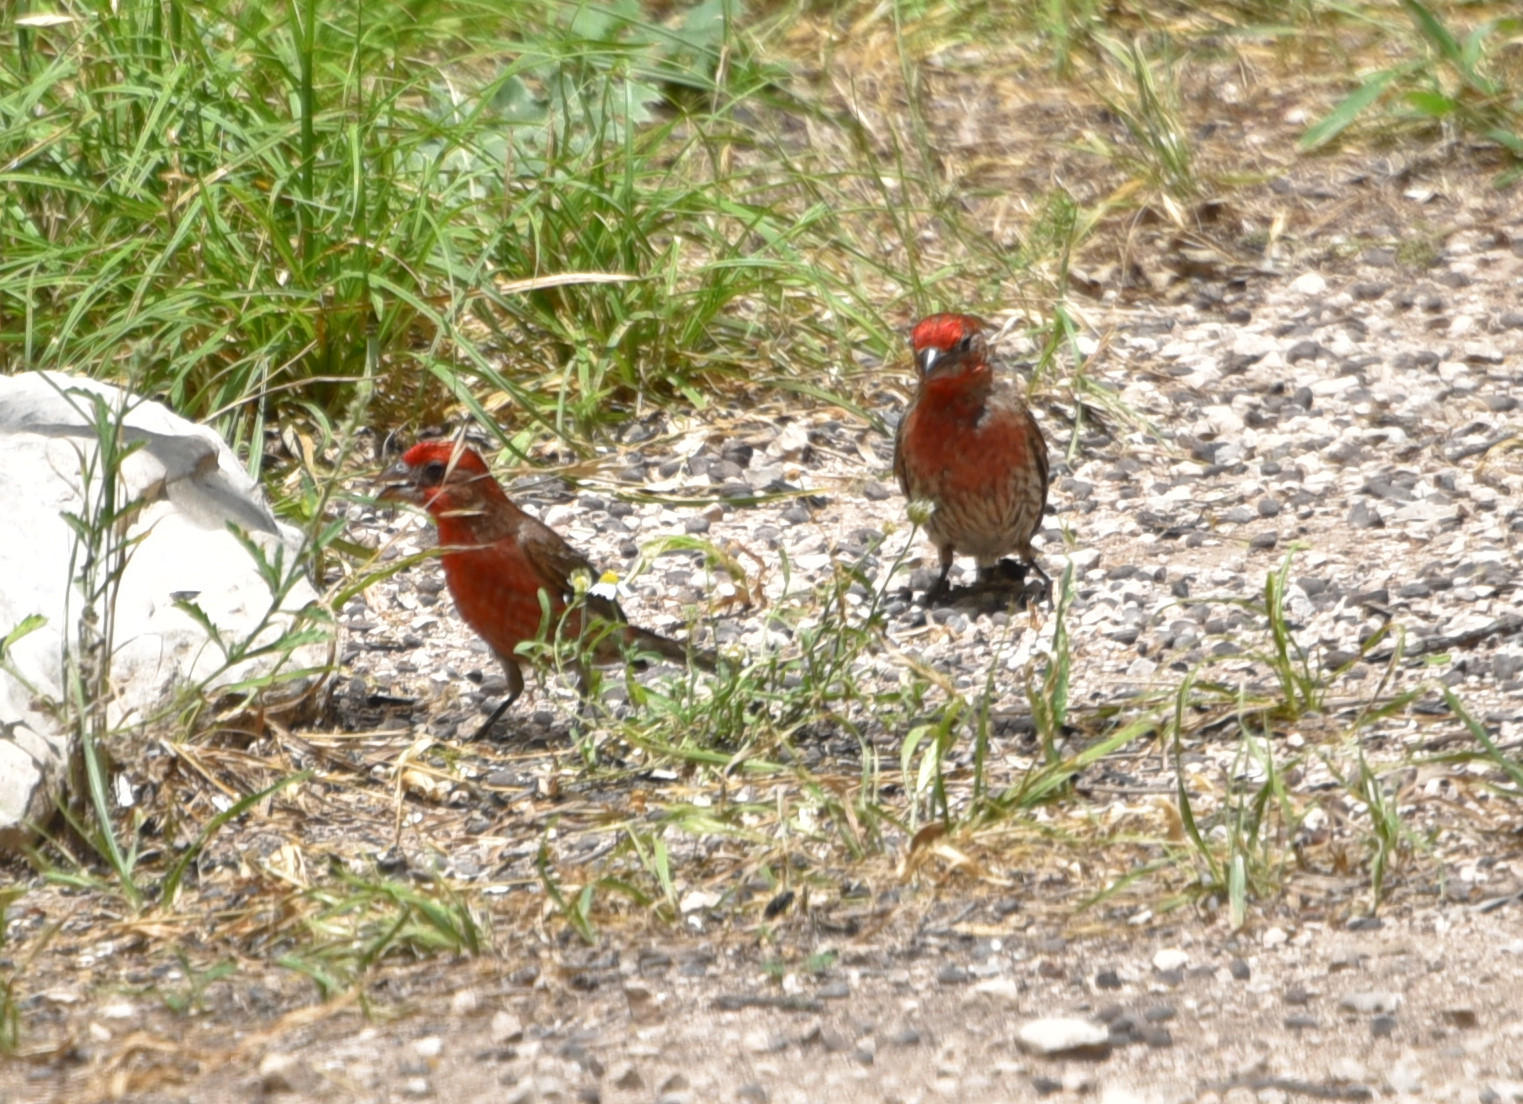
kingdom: Animalia
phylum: Chordata
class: Aves
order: Passeriformes
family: Fringillidae
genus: Haemorhous
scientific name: Haemorhous mexicanus
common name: House finch
